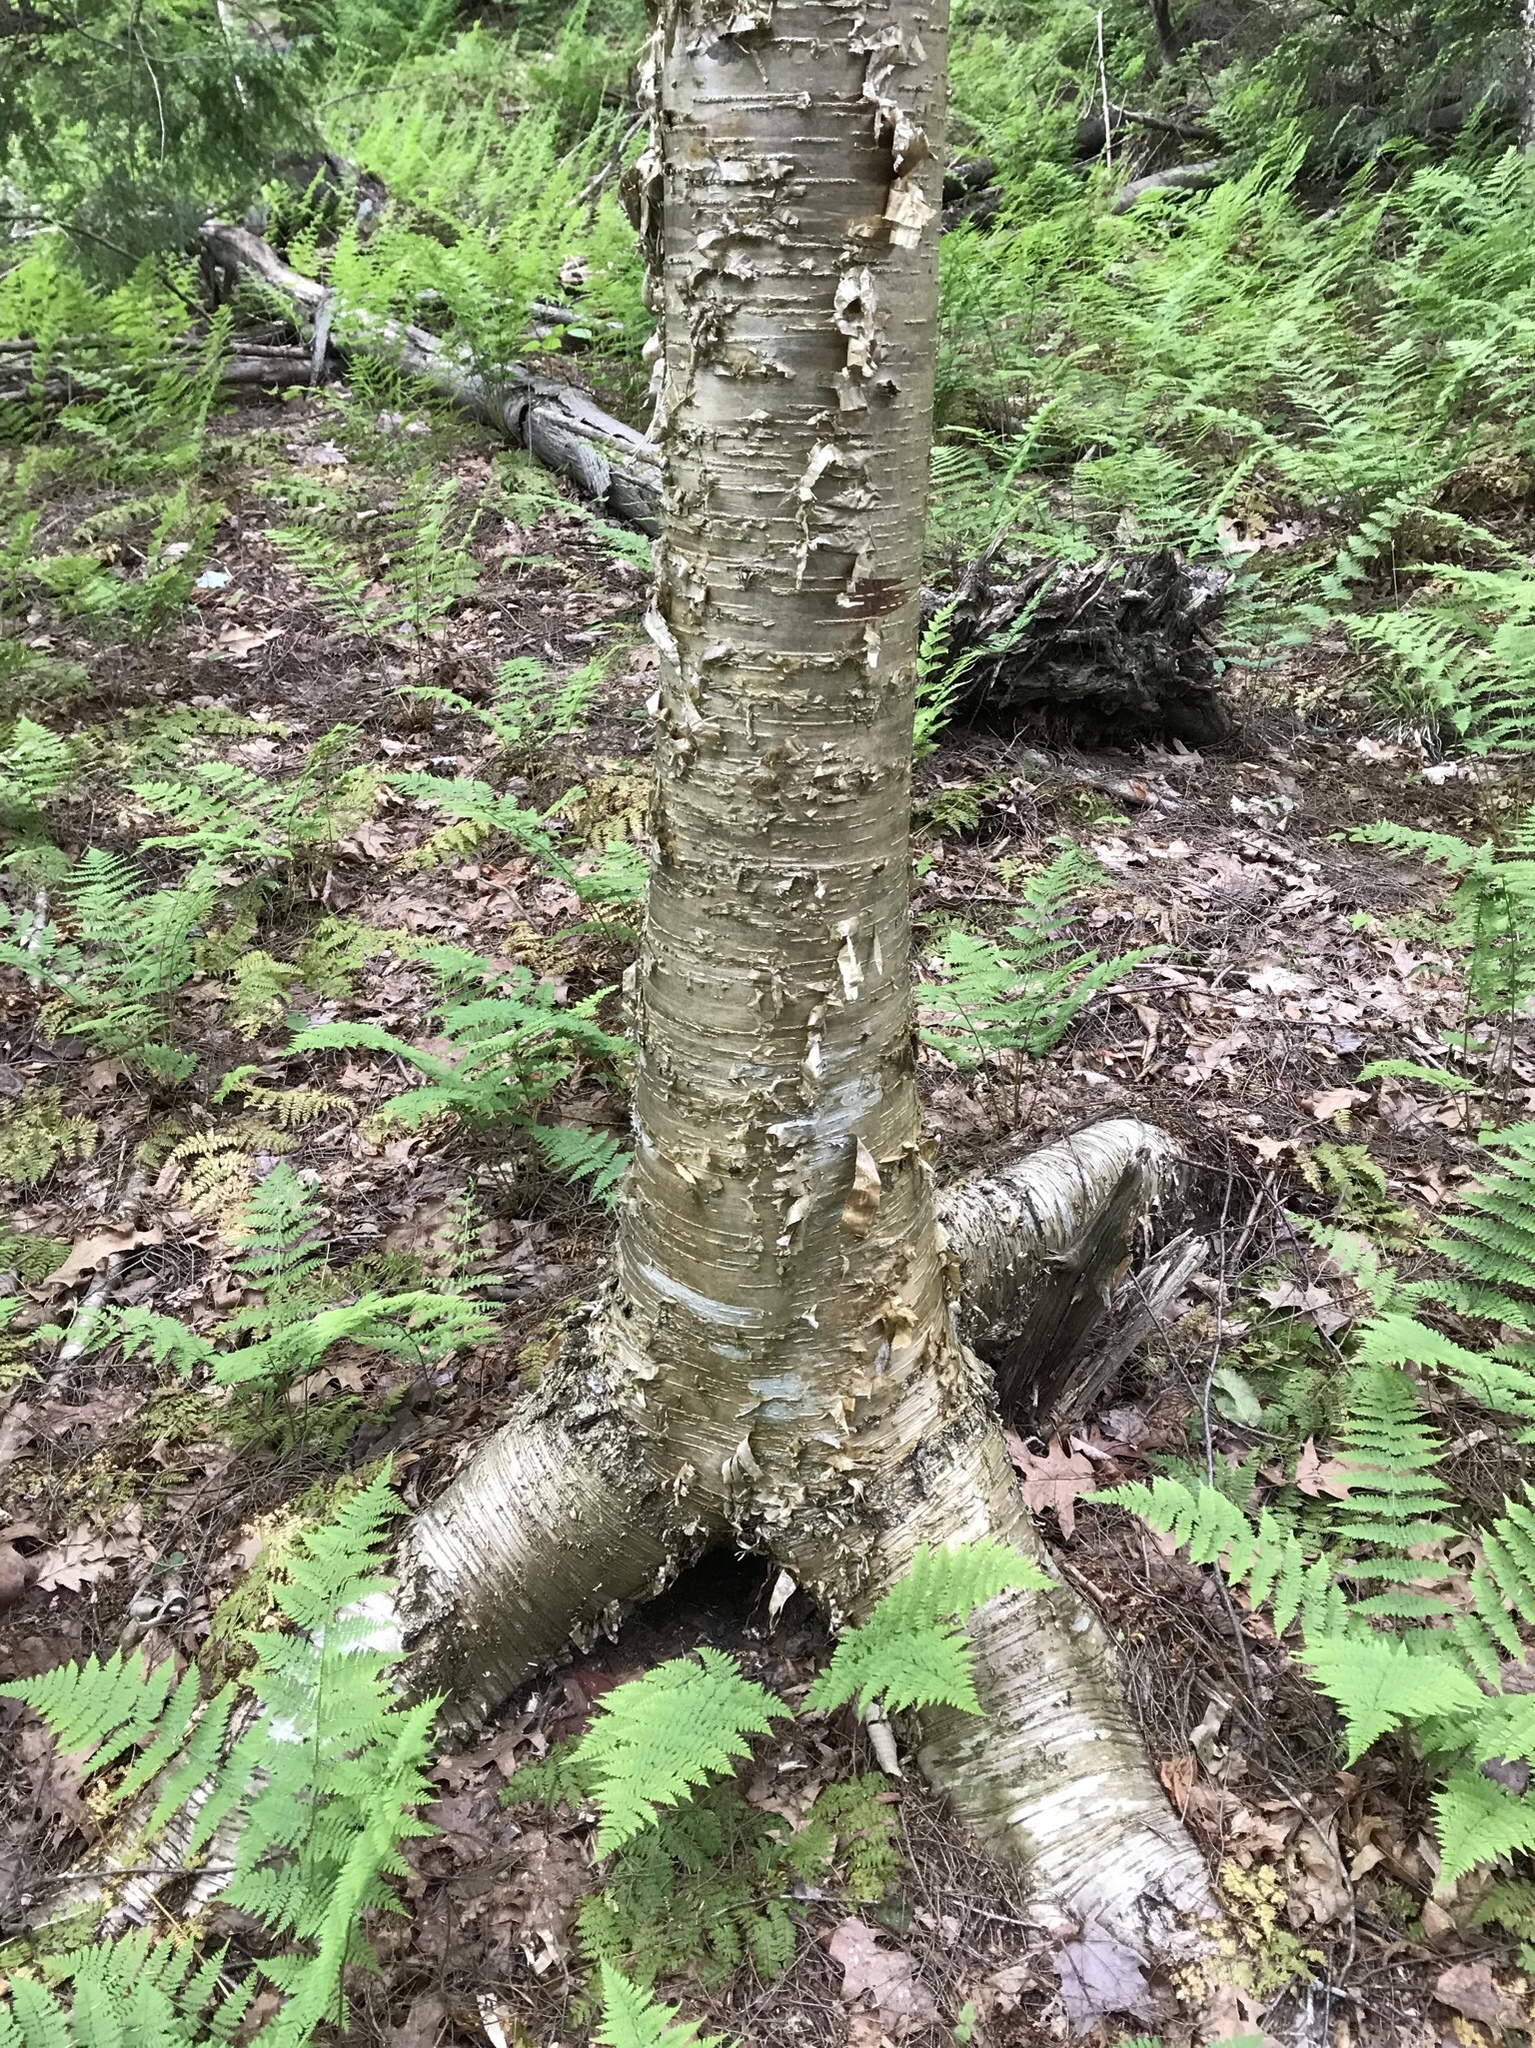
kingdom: Plantae
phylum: Tracheophyta
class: Magnoliopsida
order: Fagales
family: Betulaceae
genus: Betula
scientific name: Betula alleghaniensis
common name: Yellow birch
